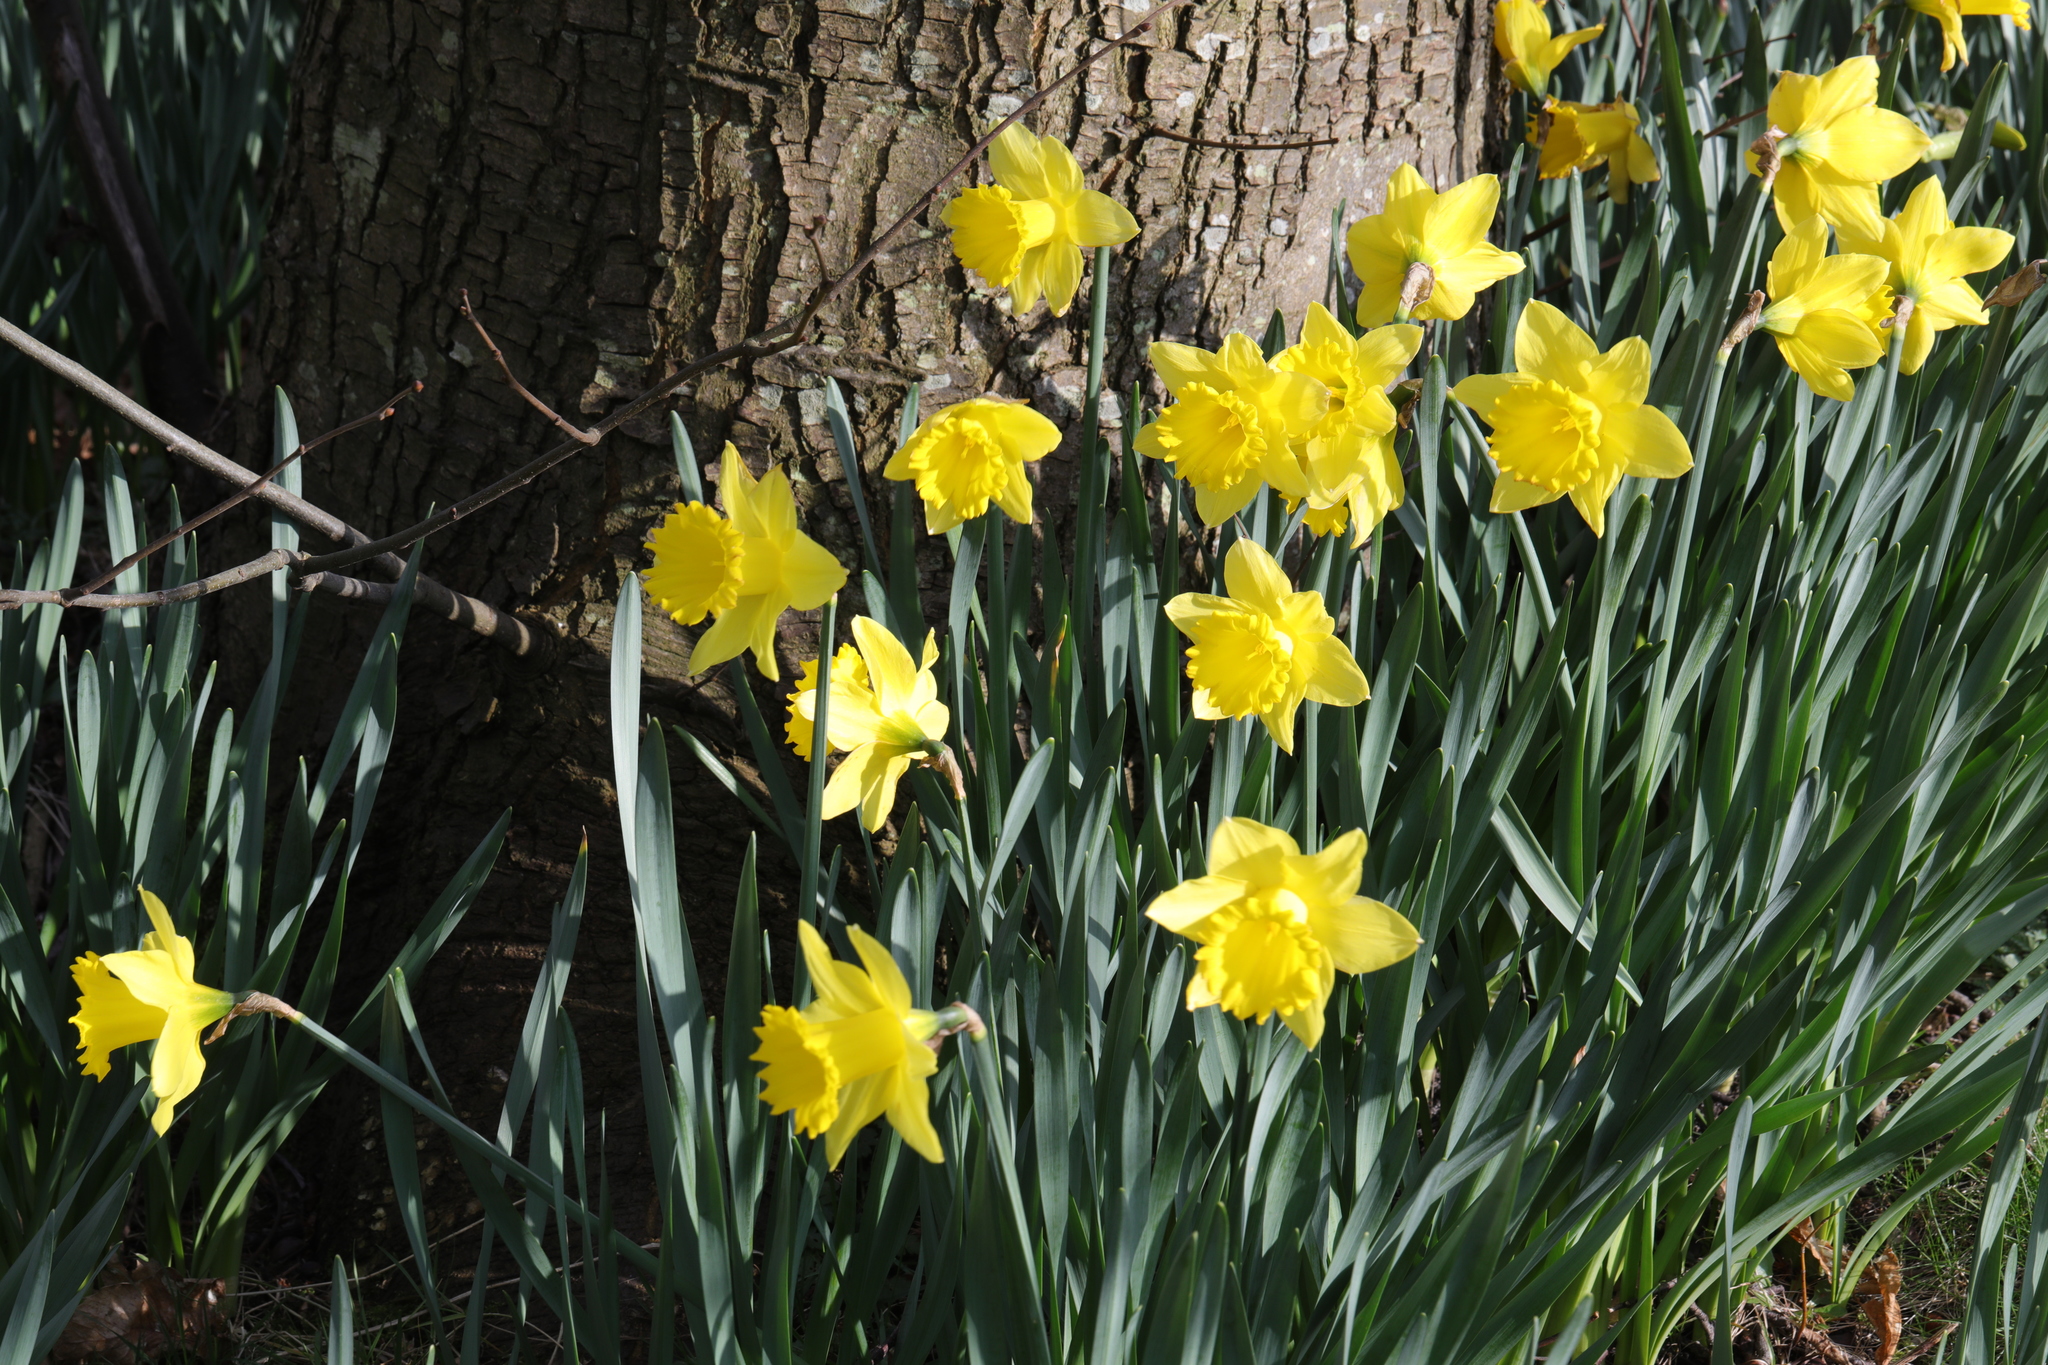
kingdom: Plantae
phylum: Tracheophyta
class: Liliopsida
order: Asparagales
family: Amaryllidaceae
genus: Narcissus
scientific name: Narcissus
